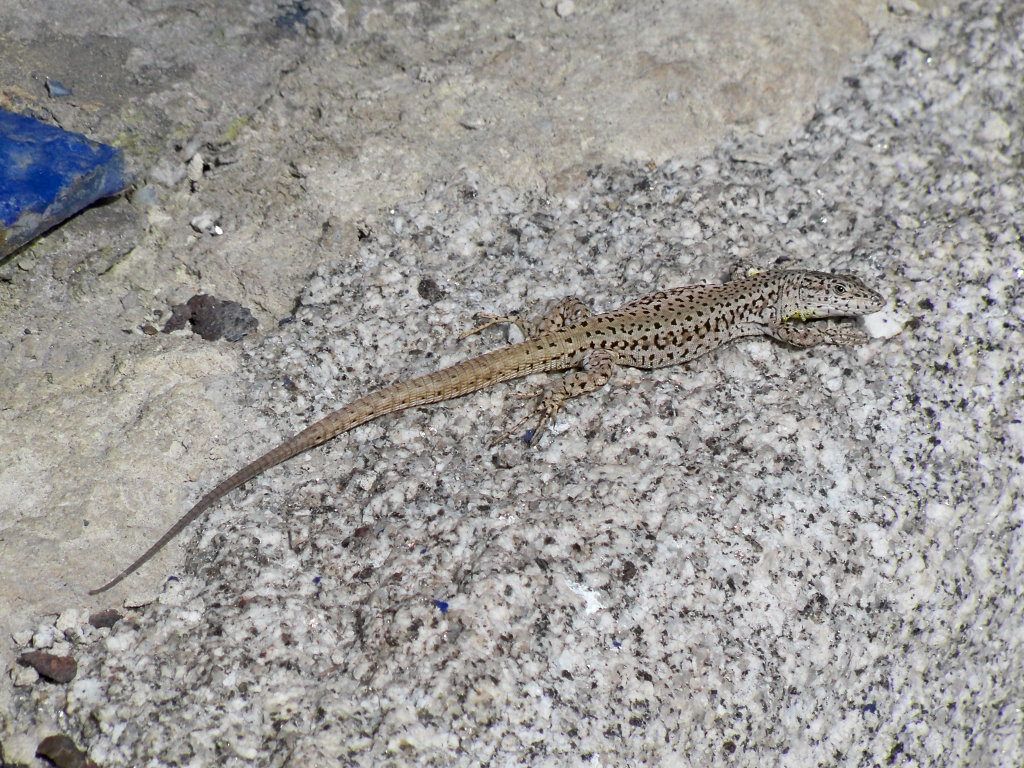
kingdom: Animalia
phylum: Chordata
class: Squamata
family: Lacertidae
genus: Podarcis
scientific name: Podarcis vaucheri
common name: Vaucher's wall lizard
